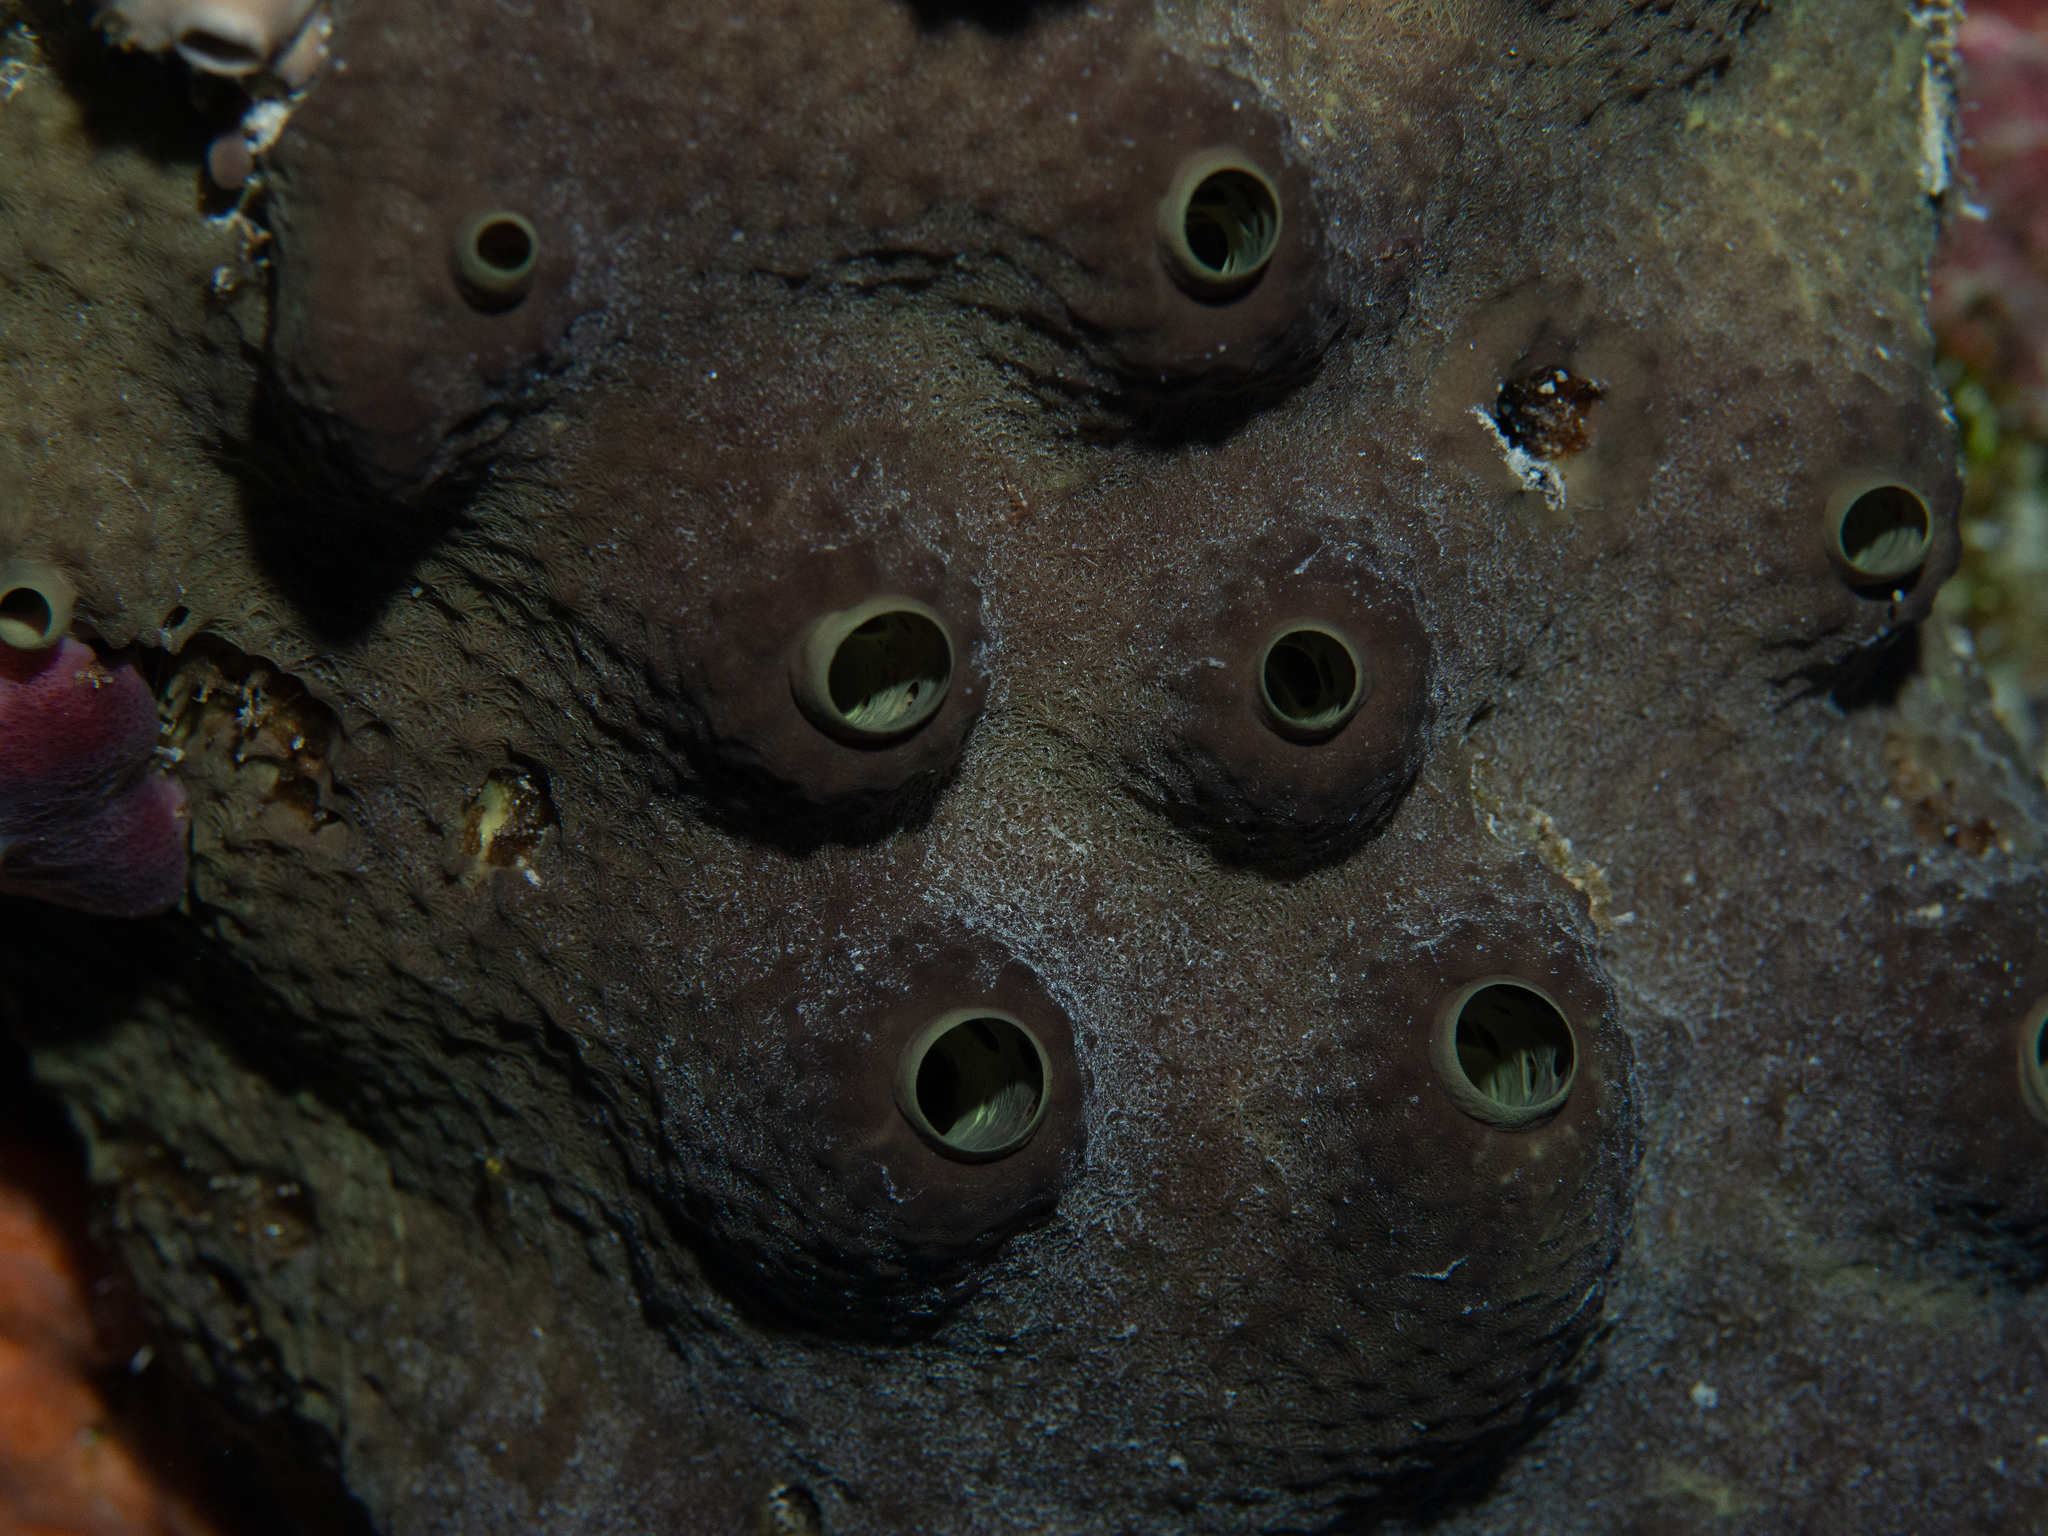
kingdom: Animalia
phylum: Porifera
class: Demospongiae
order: Dictyoceratida
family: Thorectidae
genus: Smenospongia
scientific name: Smenospongia conulosa
